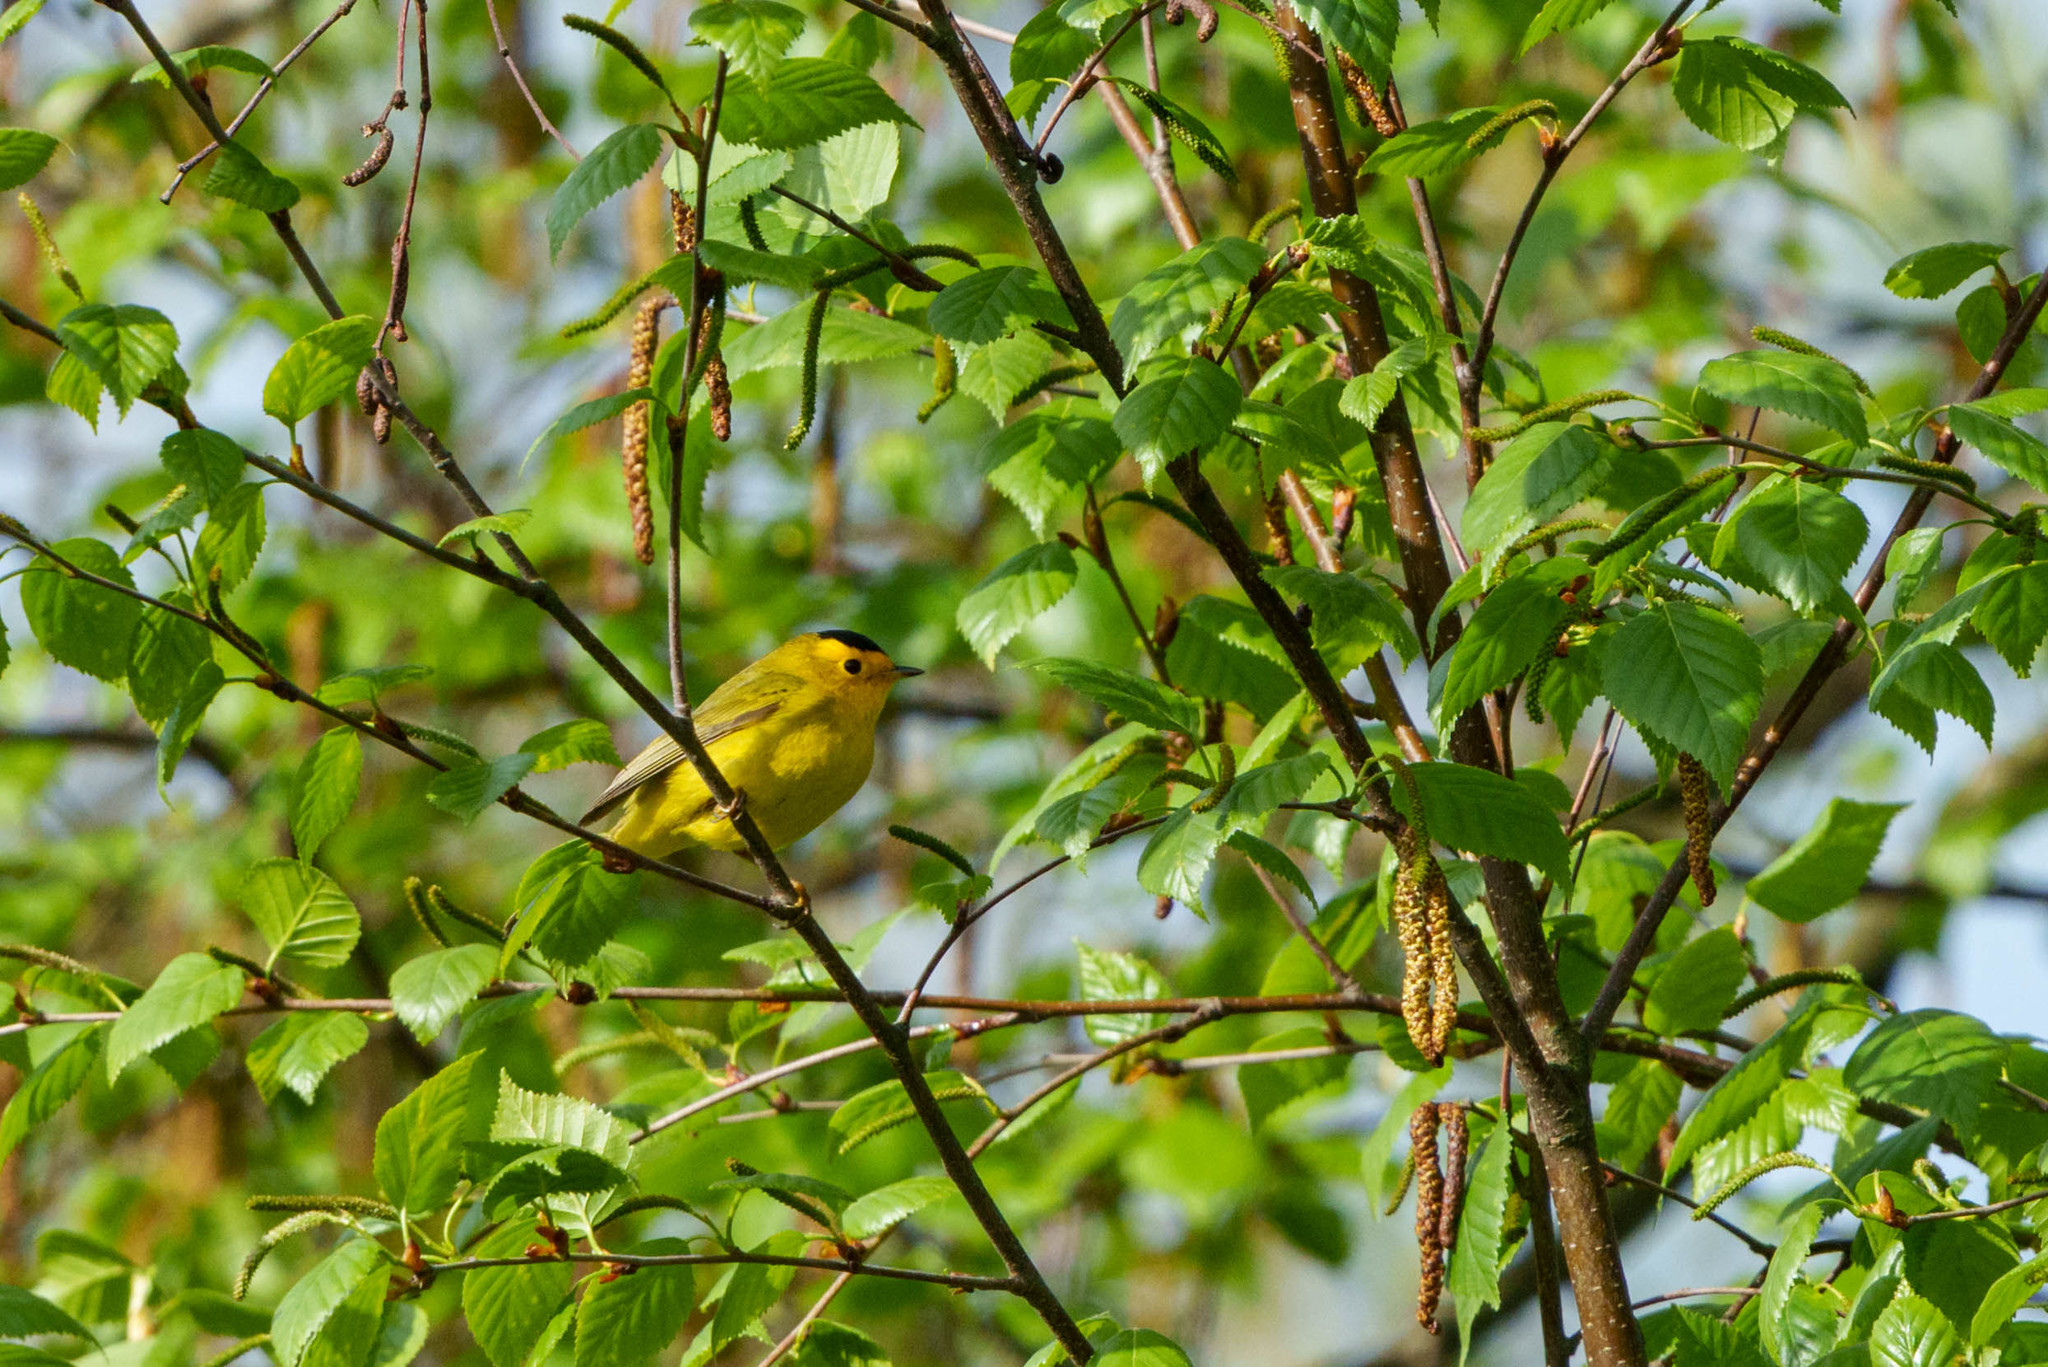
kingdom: Animalia
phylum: Chordata
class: Aves
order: Passeriformes
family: Parulidae
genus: Cardellina
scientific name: Cardellina pusilla
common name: Wilson's warbler
